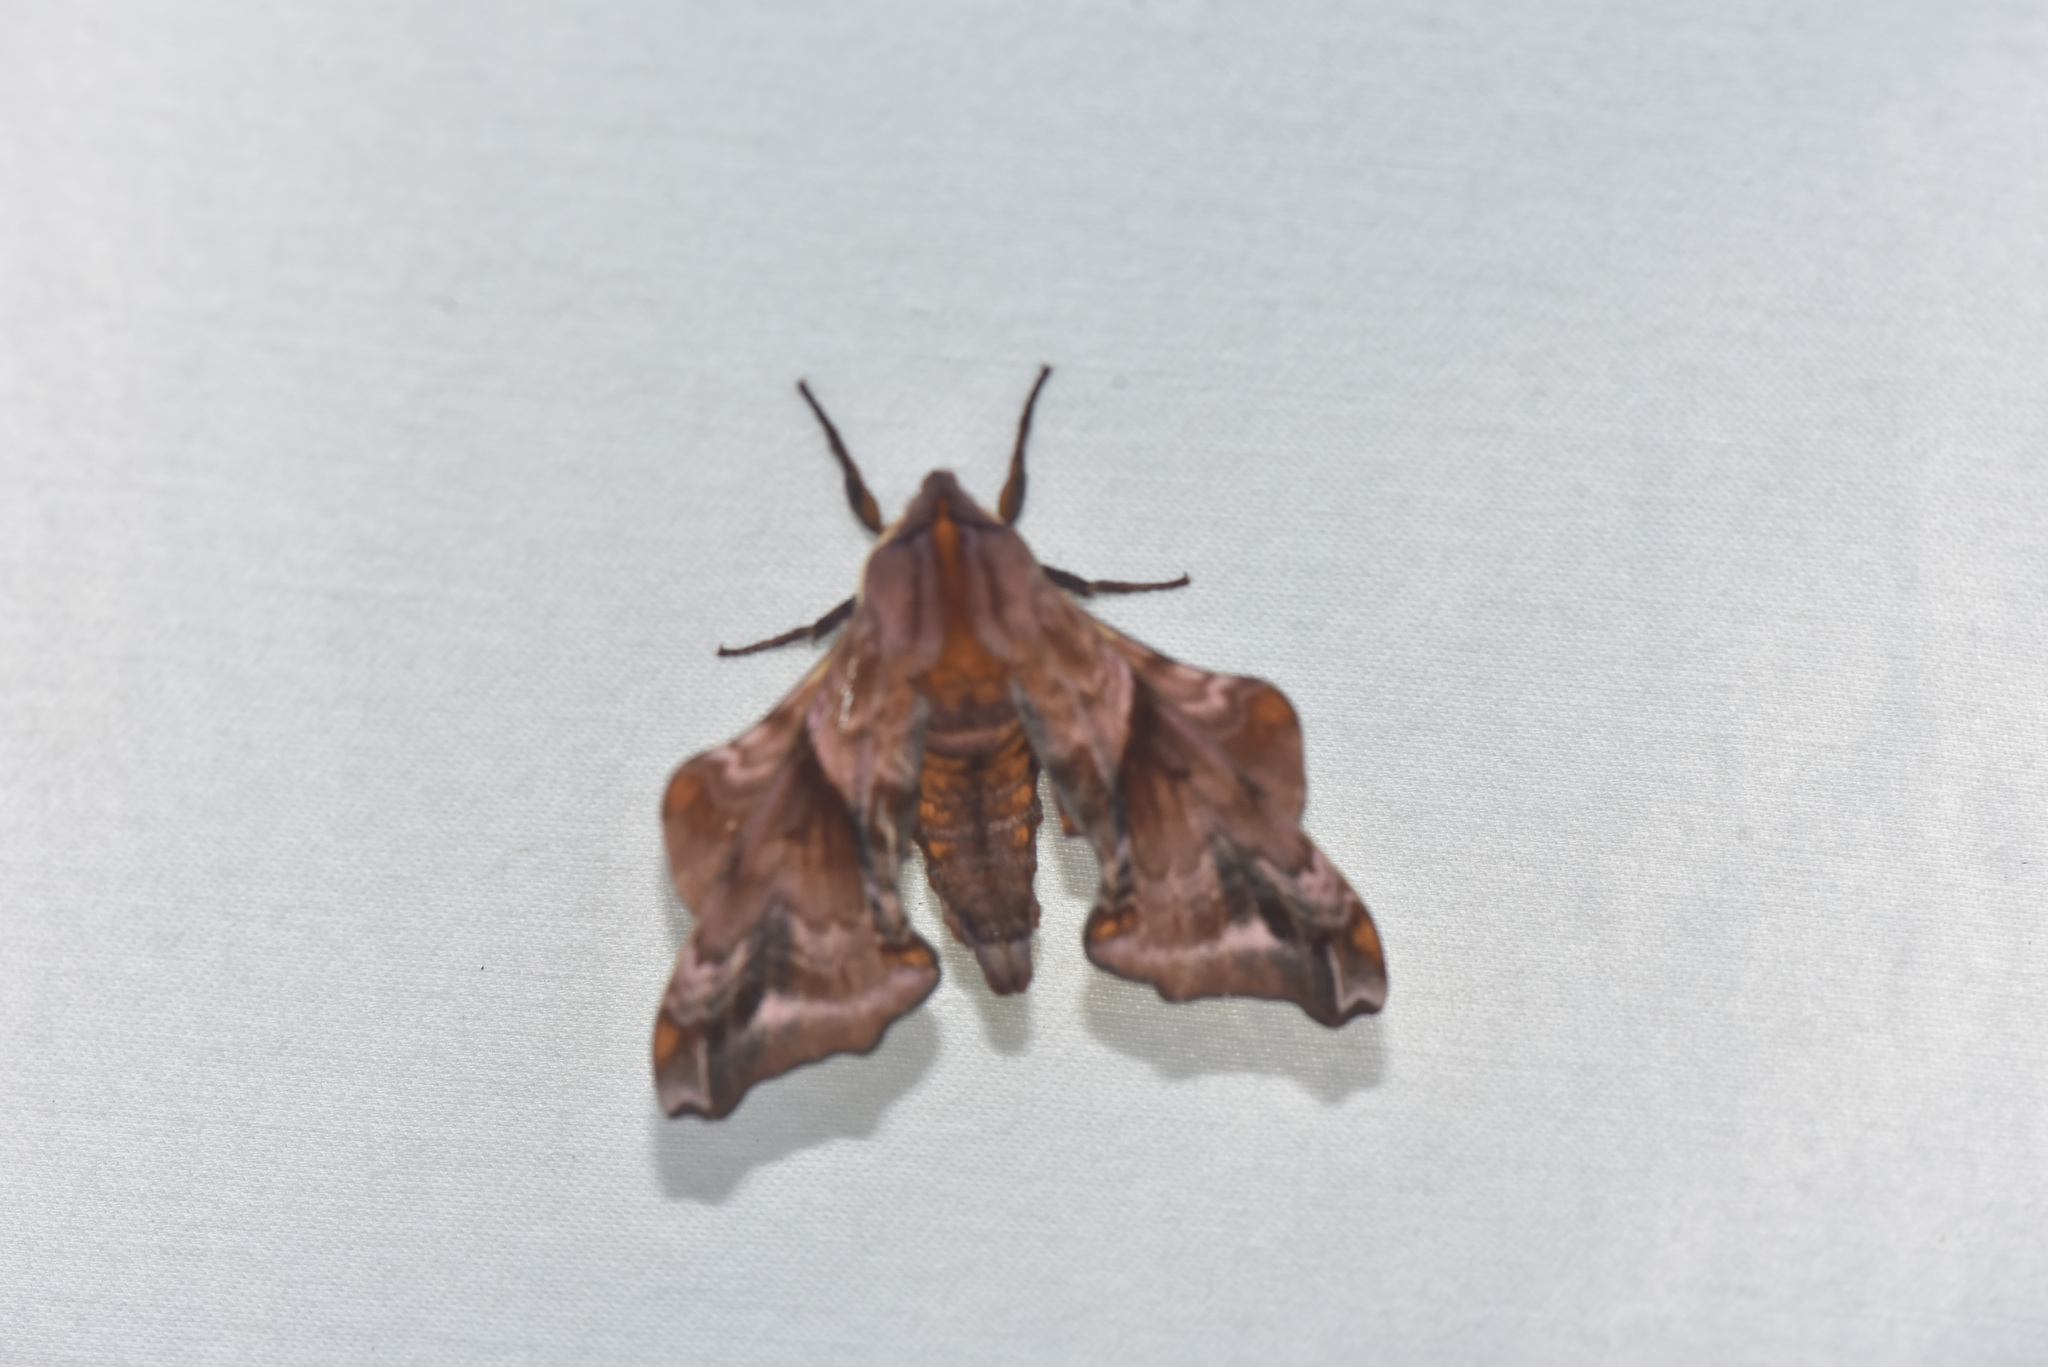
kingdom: Animalia
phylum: Arthropoda
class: Insecta
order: Lepidoptera
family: Sphingidae
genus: Paonias
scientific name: Paonias myops
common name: Small-eyed sphinx
